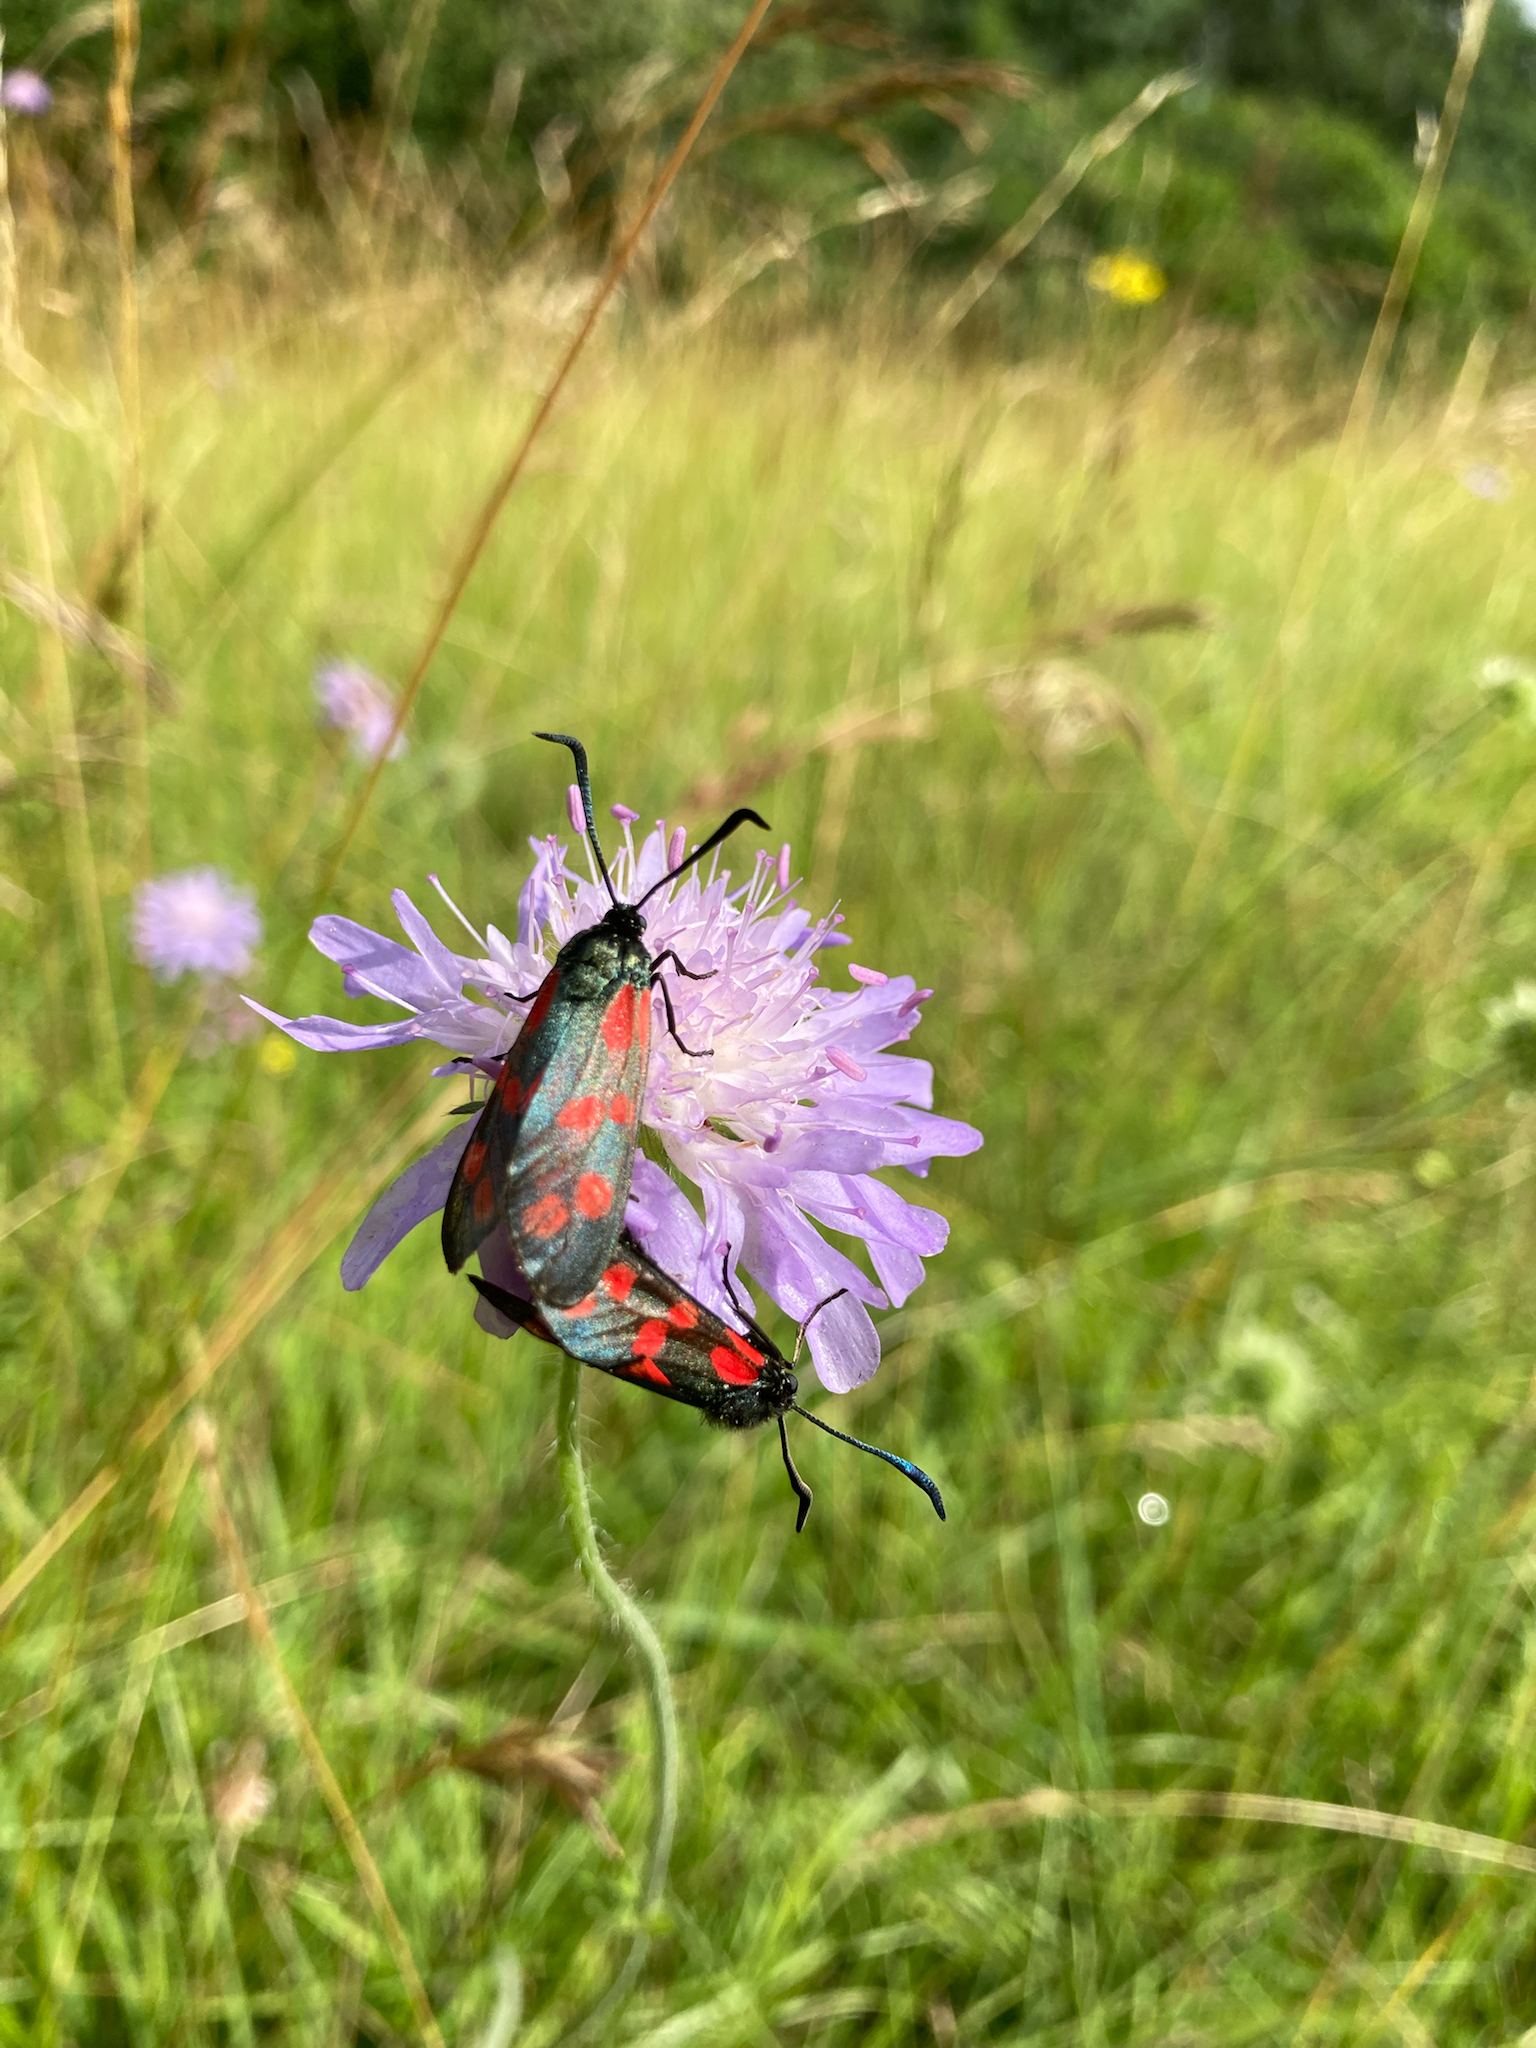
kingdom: Animalia
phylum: Arthropoda
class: Insecta
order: Lepidoptera
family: Zygaenidae
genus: Zygaena
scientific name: Zygaena filipendulae
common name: Six-spot burnet
